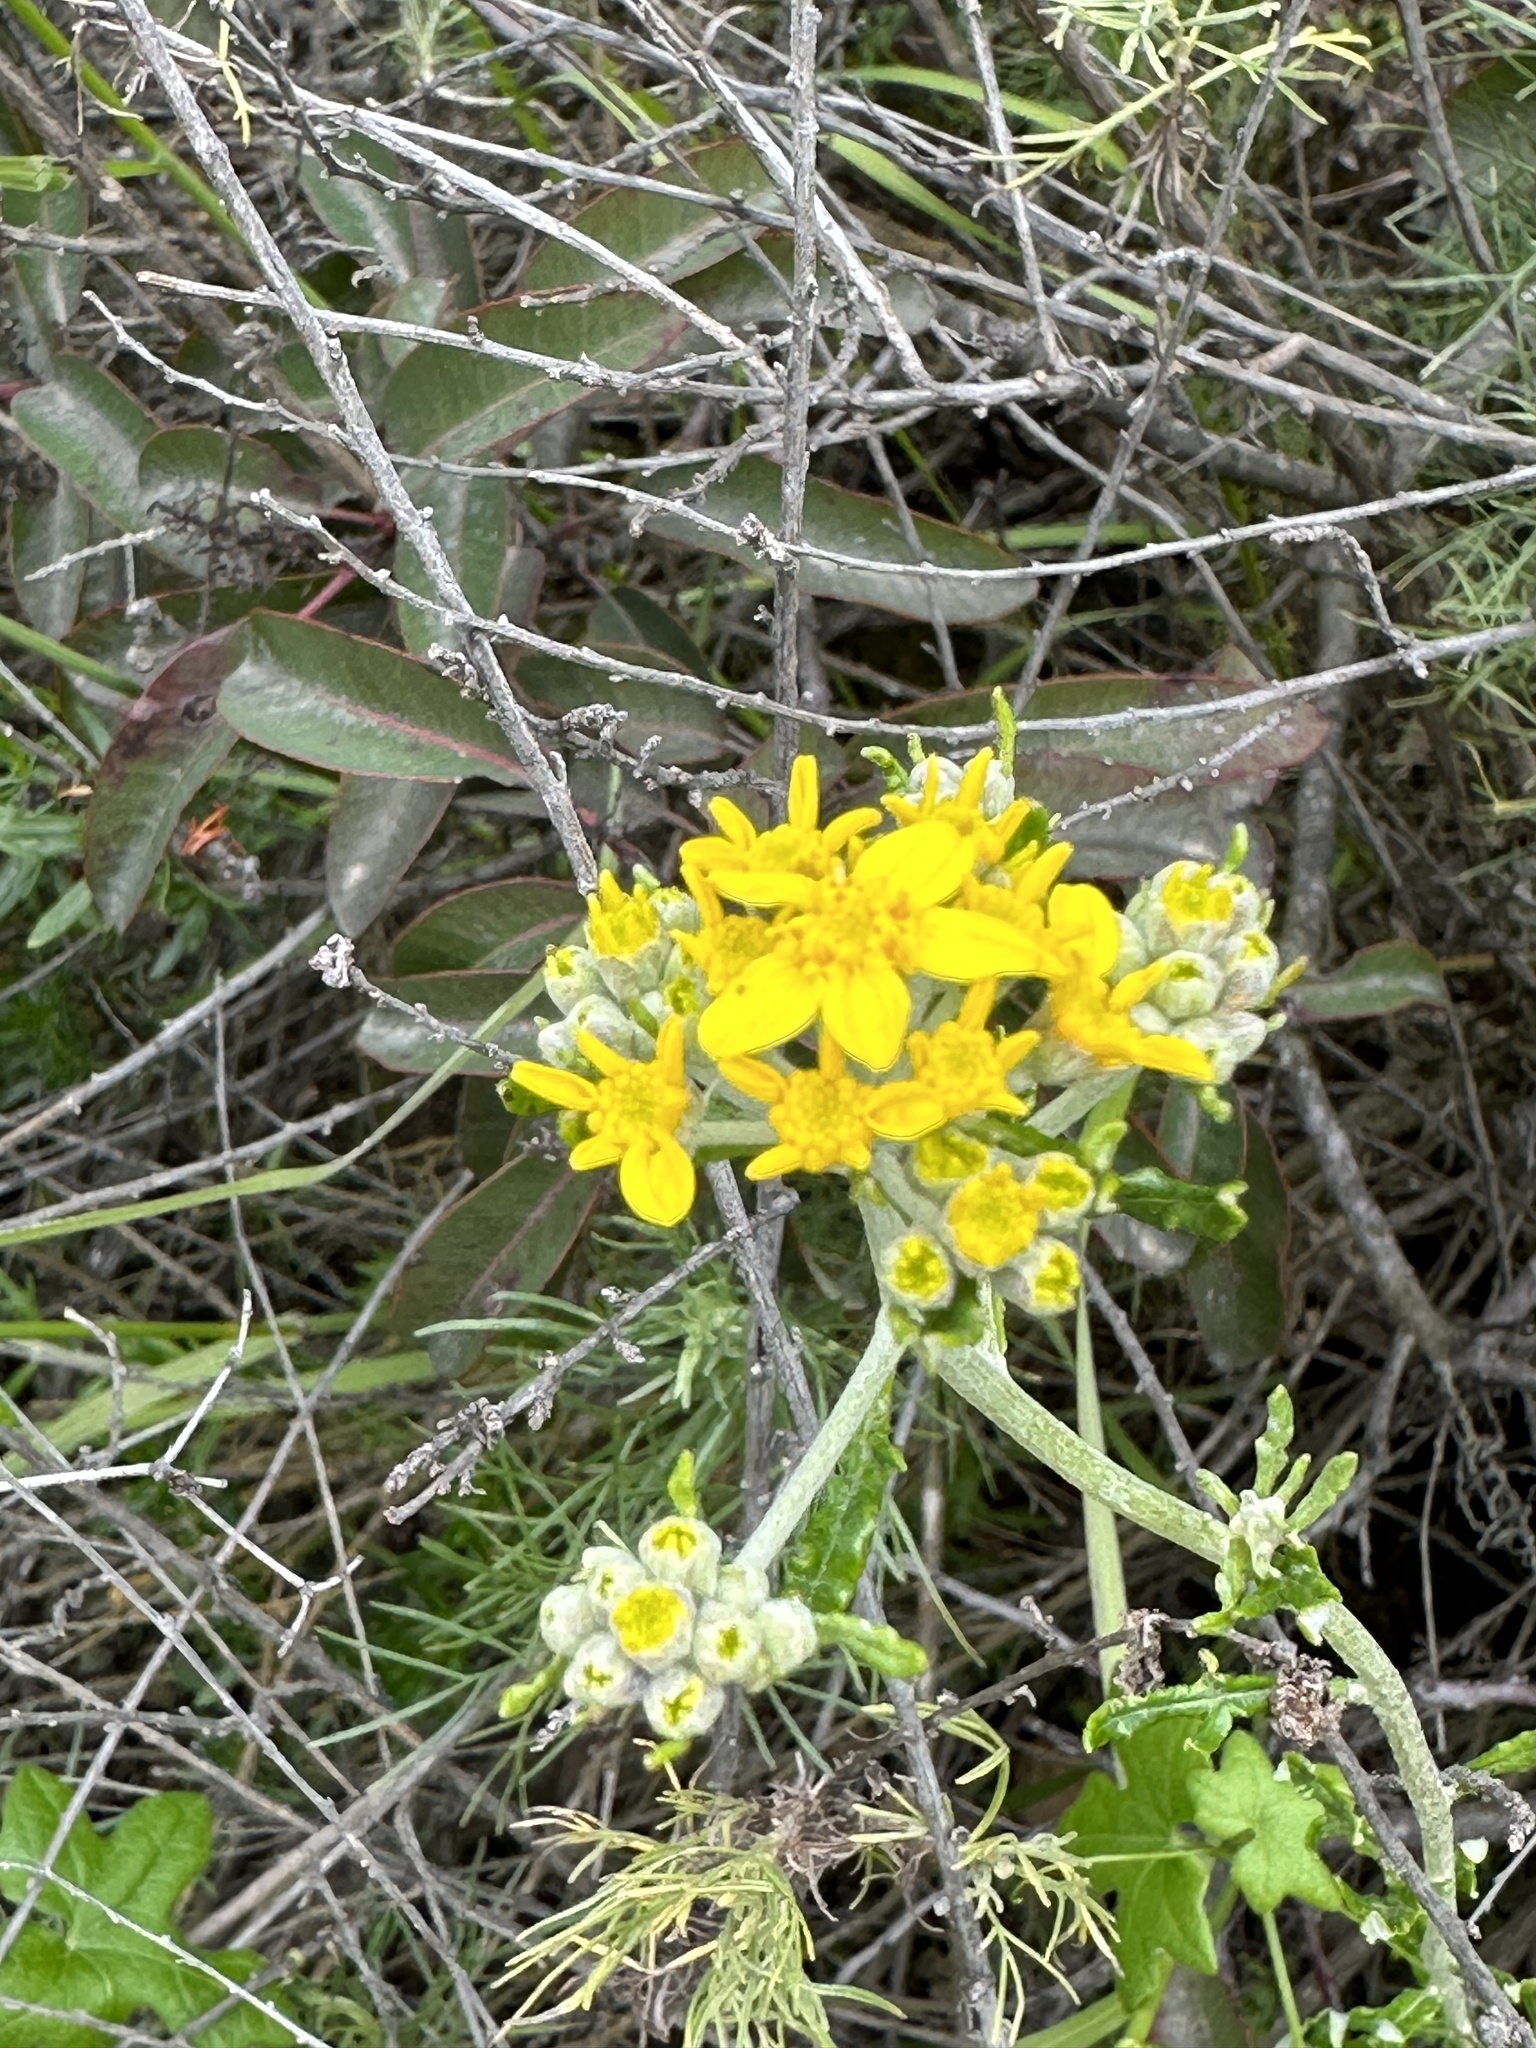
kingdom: Plantae
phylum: Tracheophyta
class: Magnoliopsida
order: Asterales
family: Asteraceae
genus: Eriophyllum
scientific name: Eriophyllum confertiflorum
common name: Golden-yarrow
